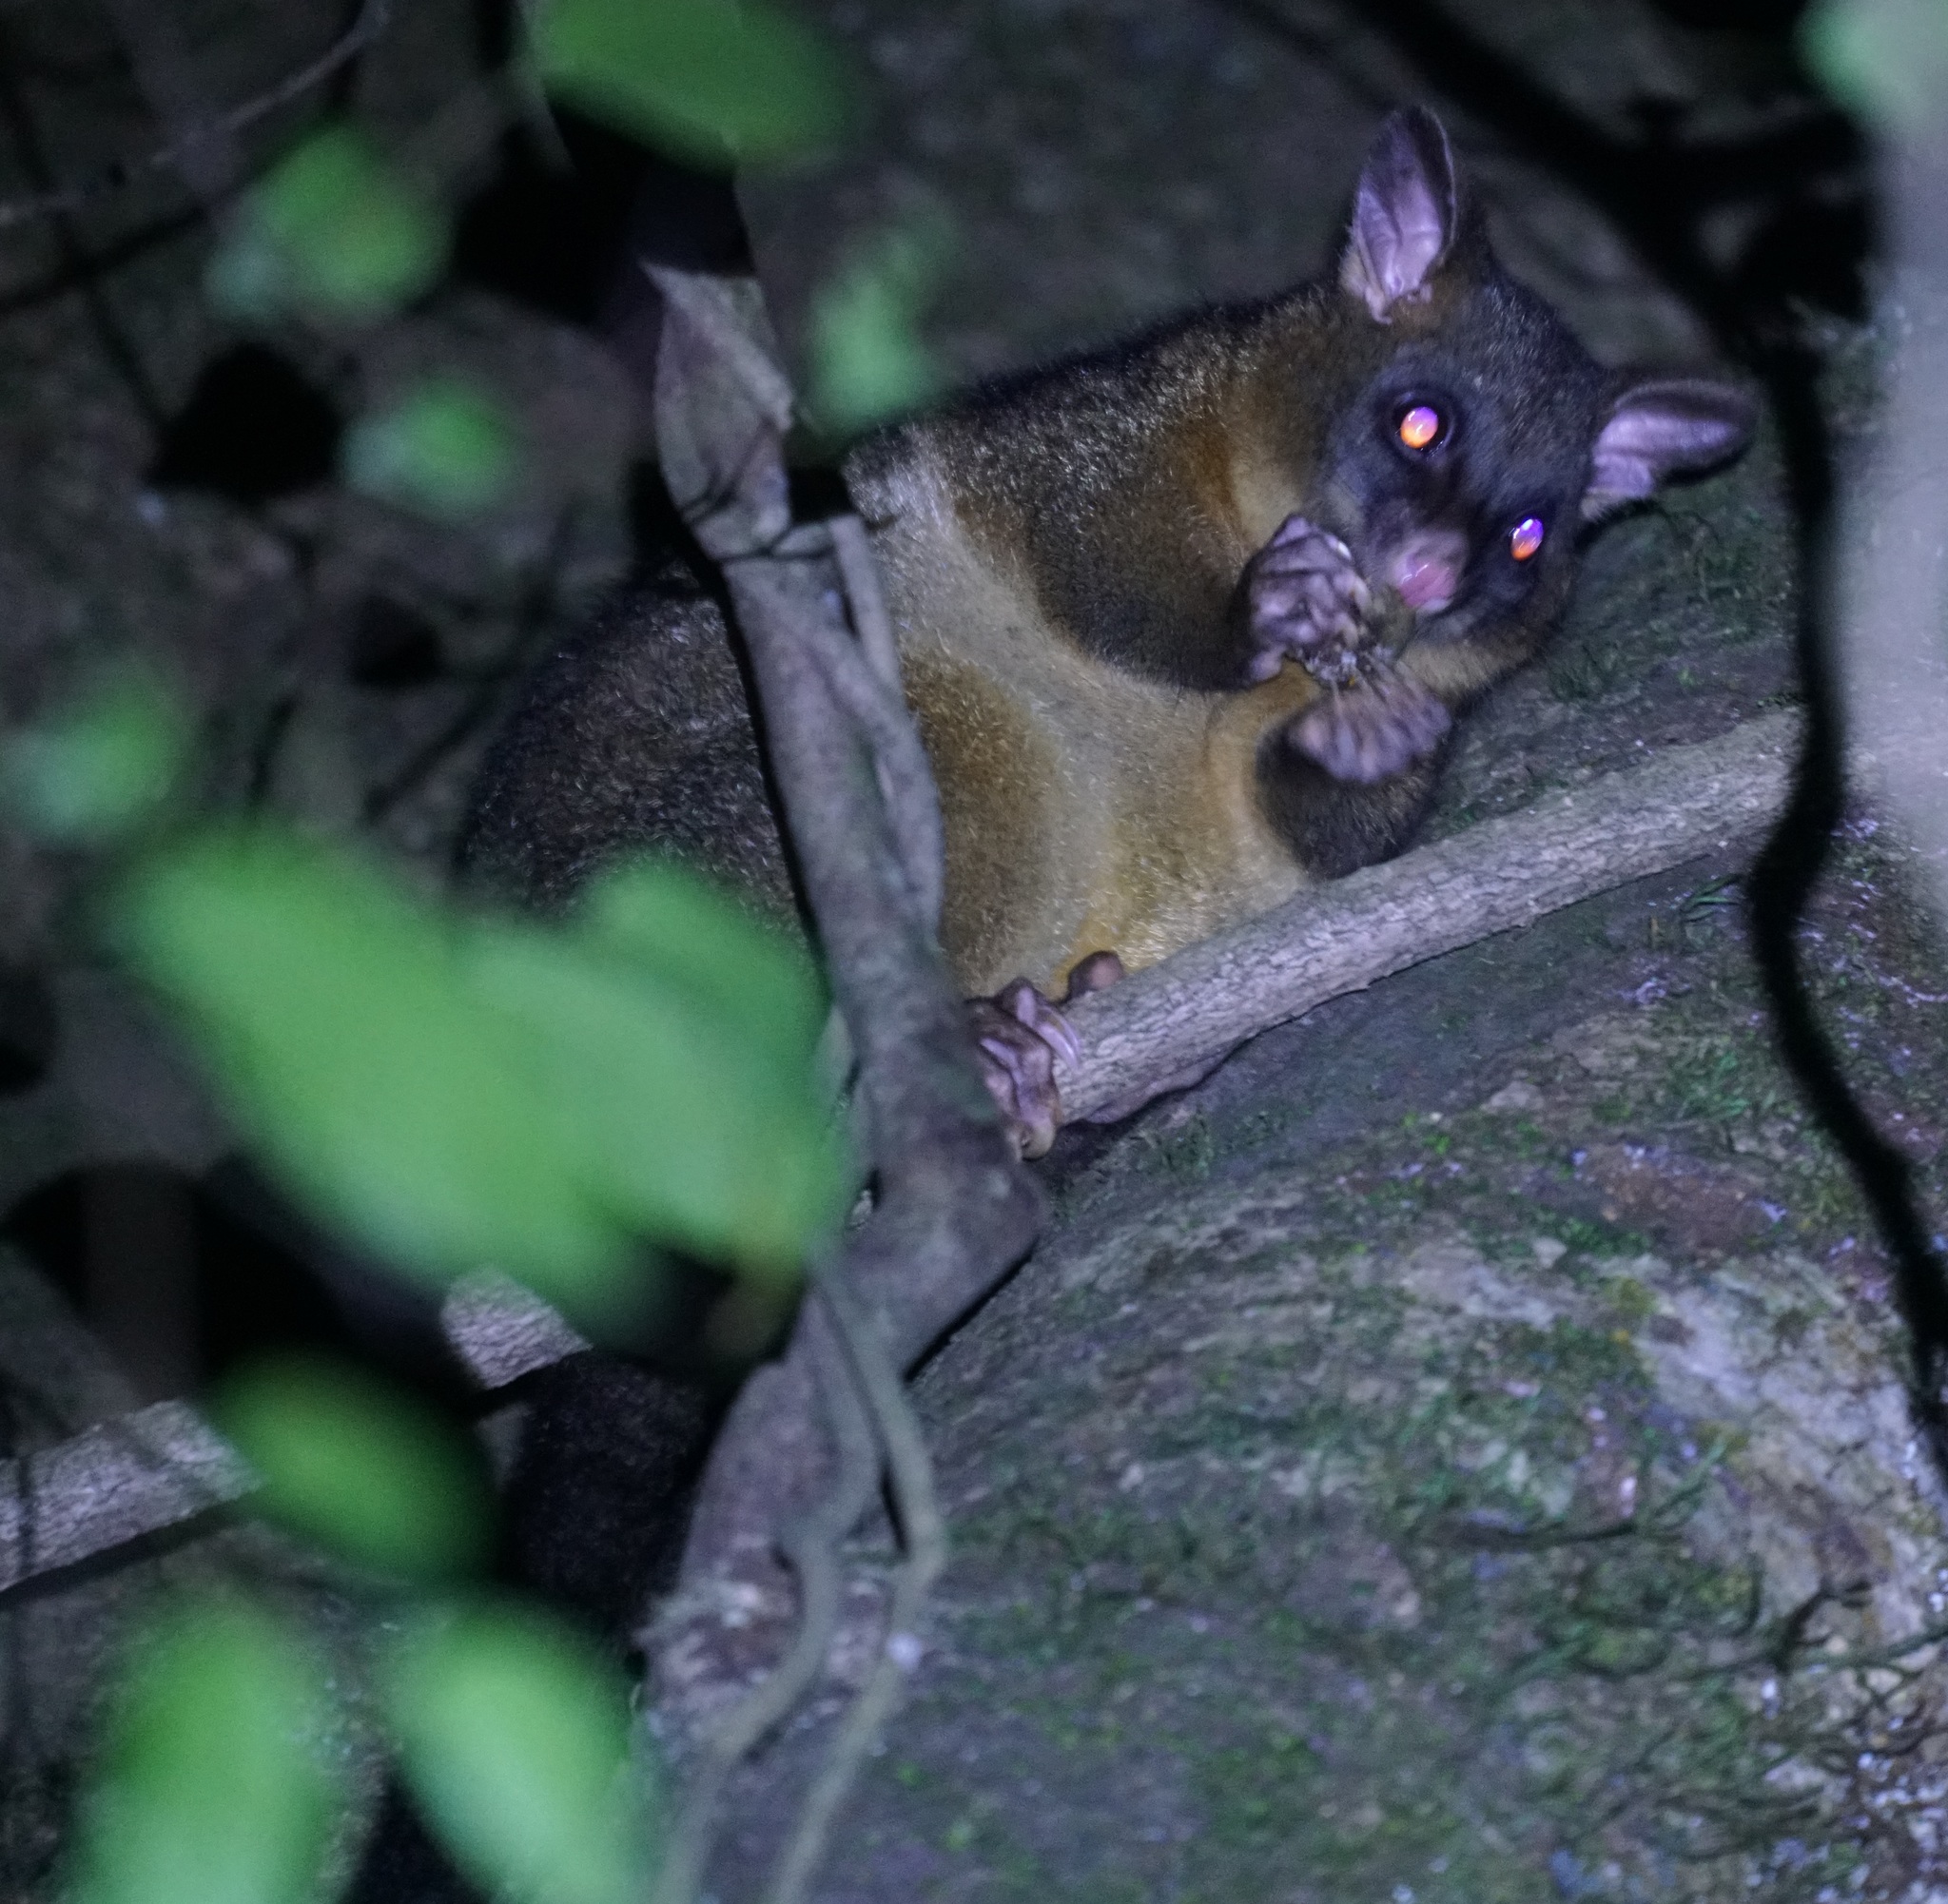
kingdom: Animalia
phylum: Chordata
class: Mammalia
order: Diprotodontia
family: Phalangeridae
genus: Trichosurus
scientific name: Trichosurus vulpecula
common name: Common brushtail
